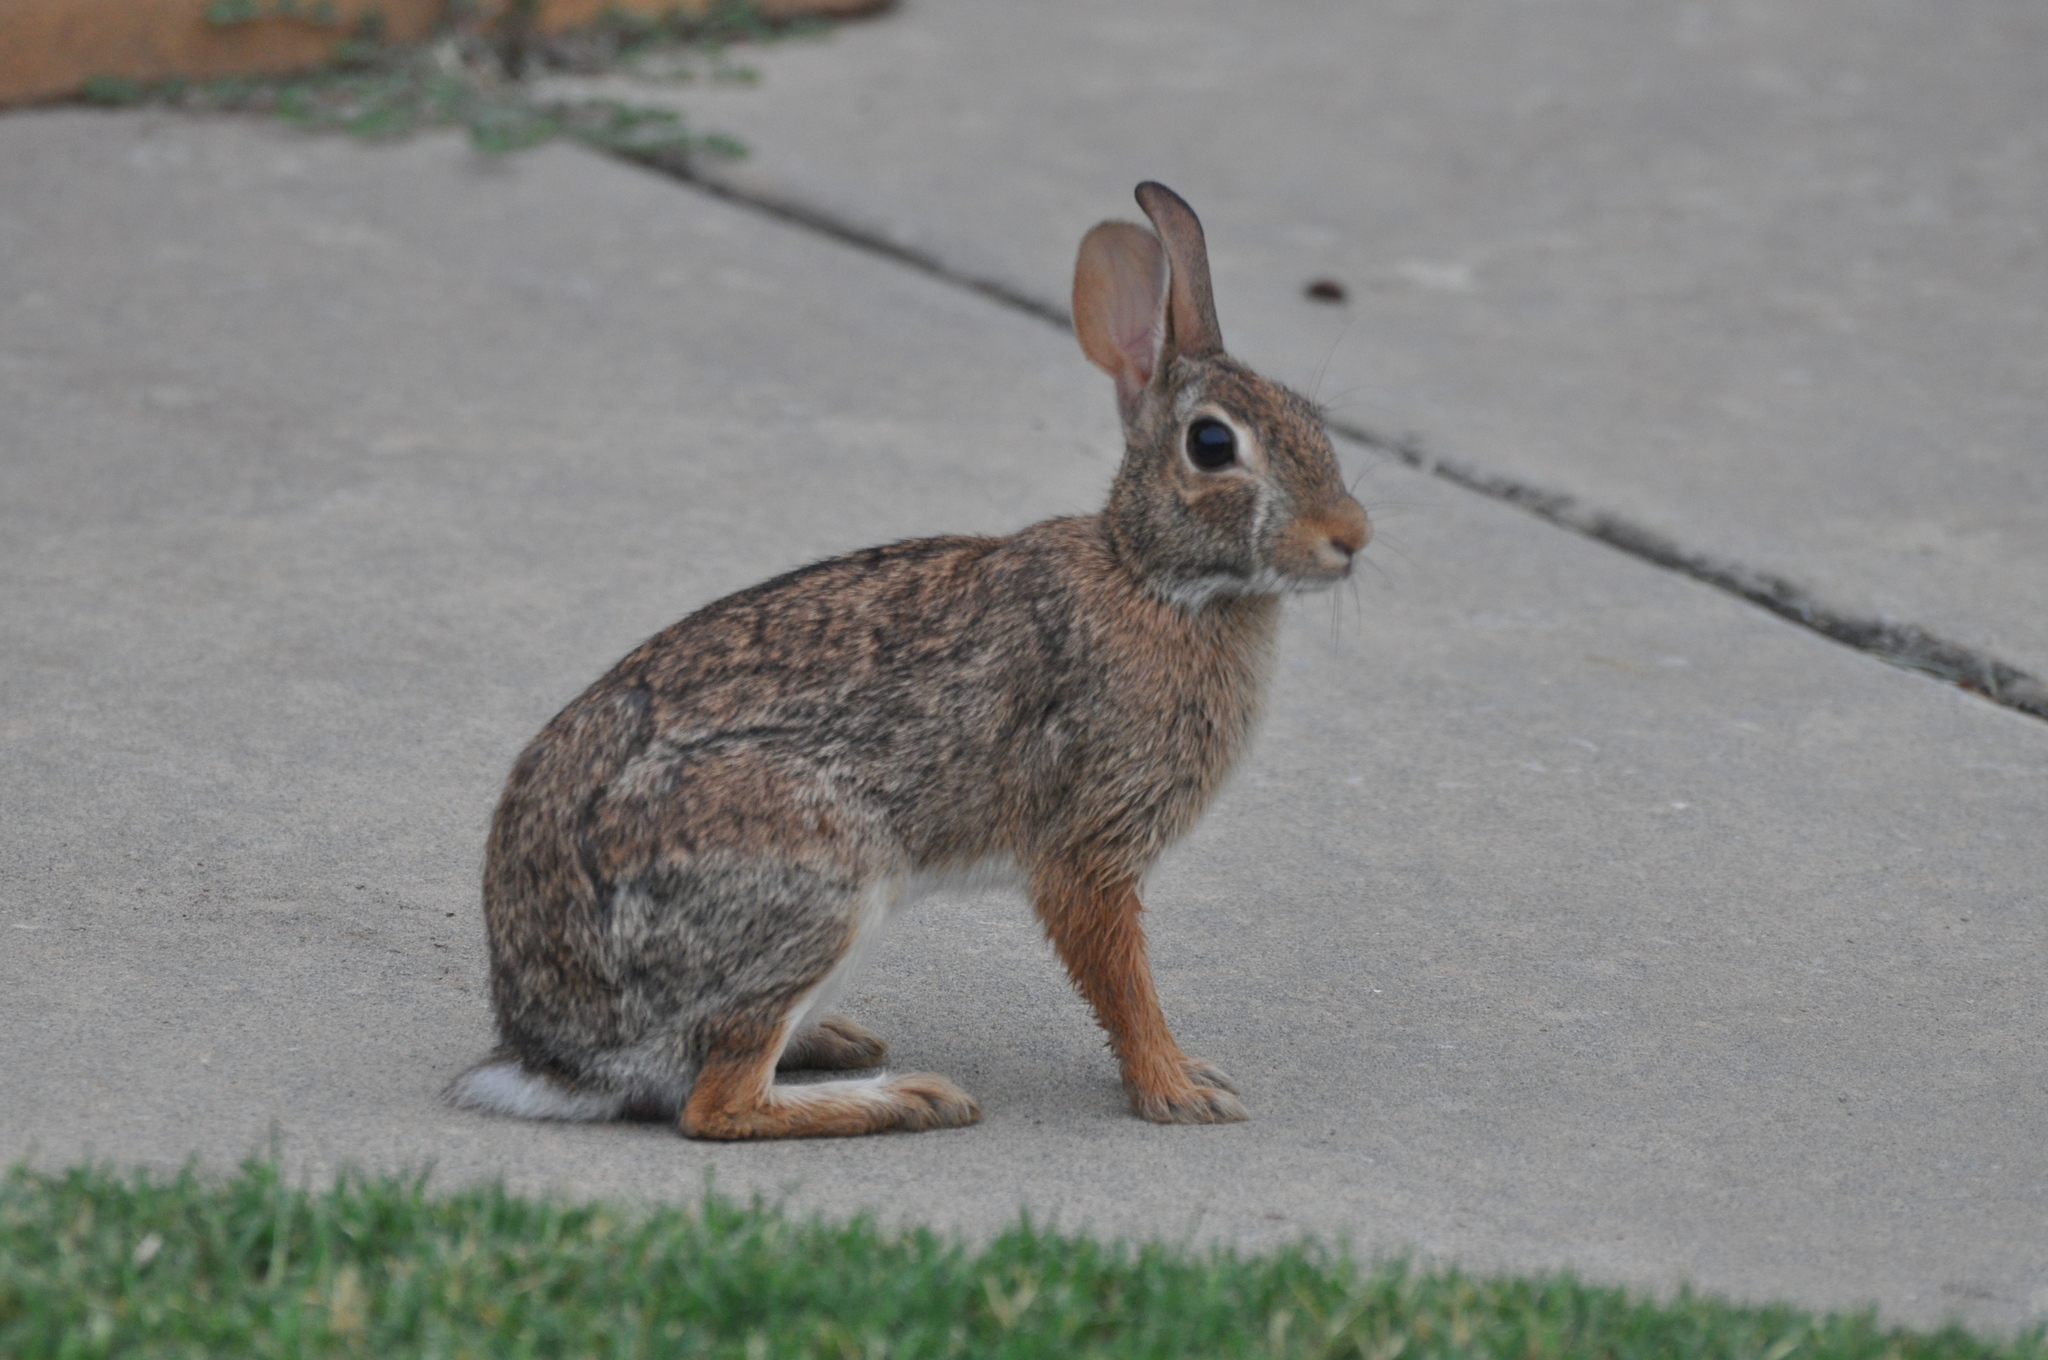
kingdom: Animalia
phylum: Chordata
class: Mammalia
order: Lagomorpha
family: Leporidae
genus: Sylvilagus
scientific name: Sylvilagus floridanus
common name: Eastern cottontail
